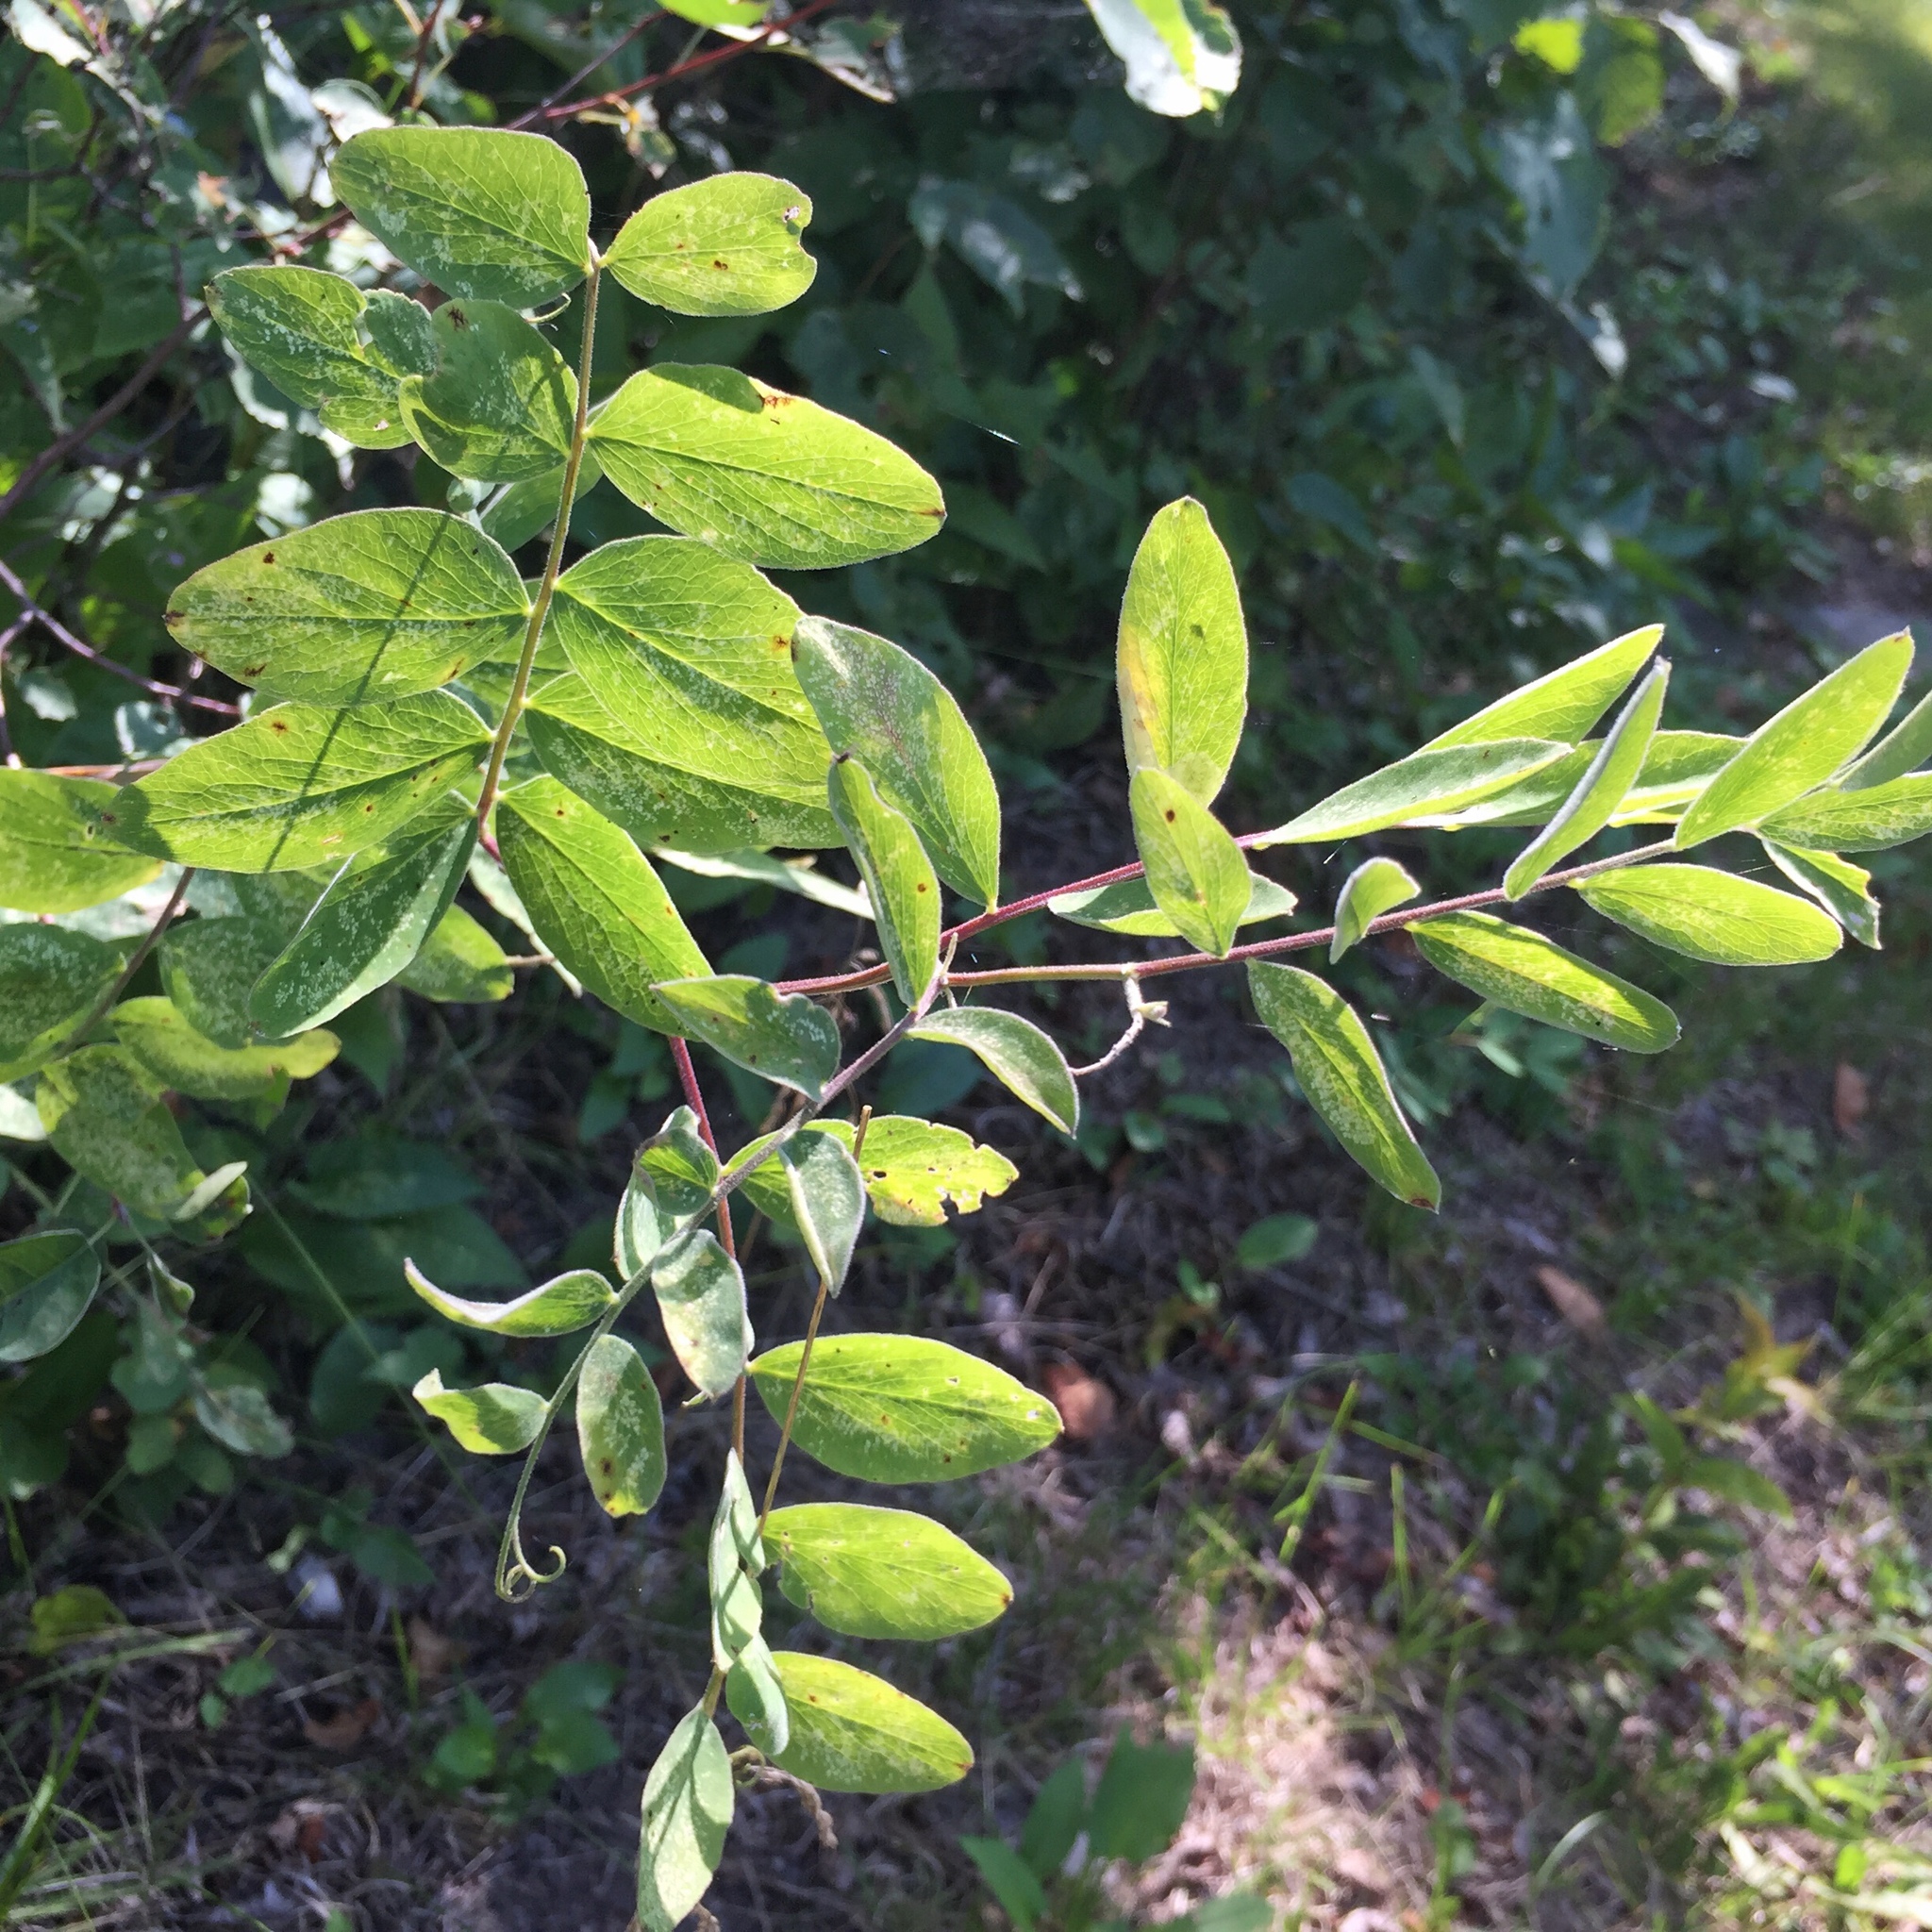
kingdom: Plantae
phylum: Tracheophyta
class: Magnoliopsida
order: Fabales
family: Fabaceae
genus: Lathyrus
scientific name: Lathyrus ochroleucus
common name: Pale vetchling
